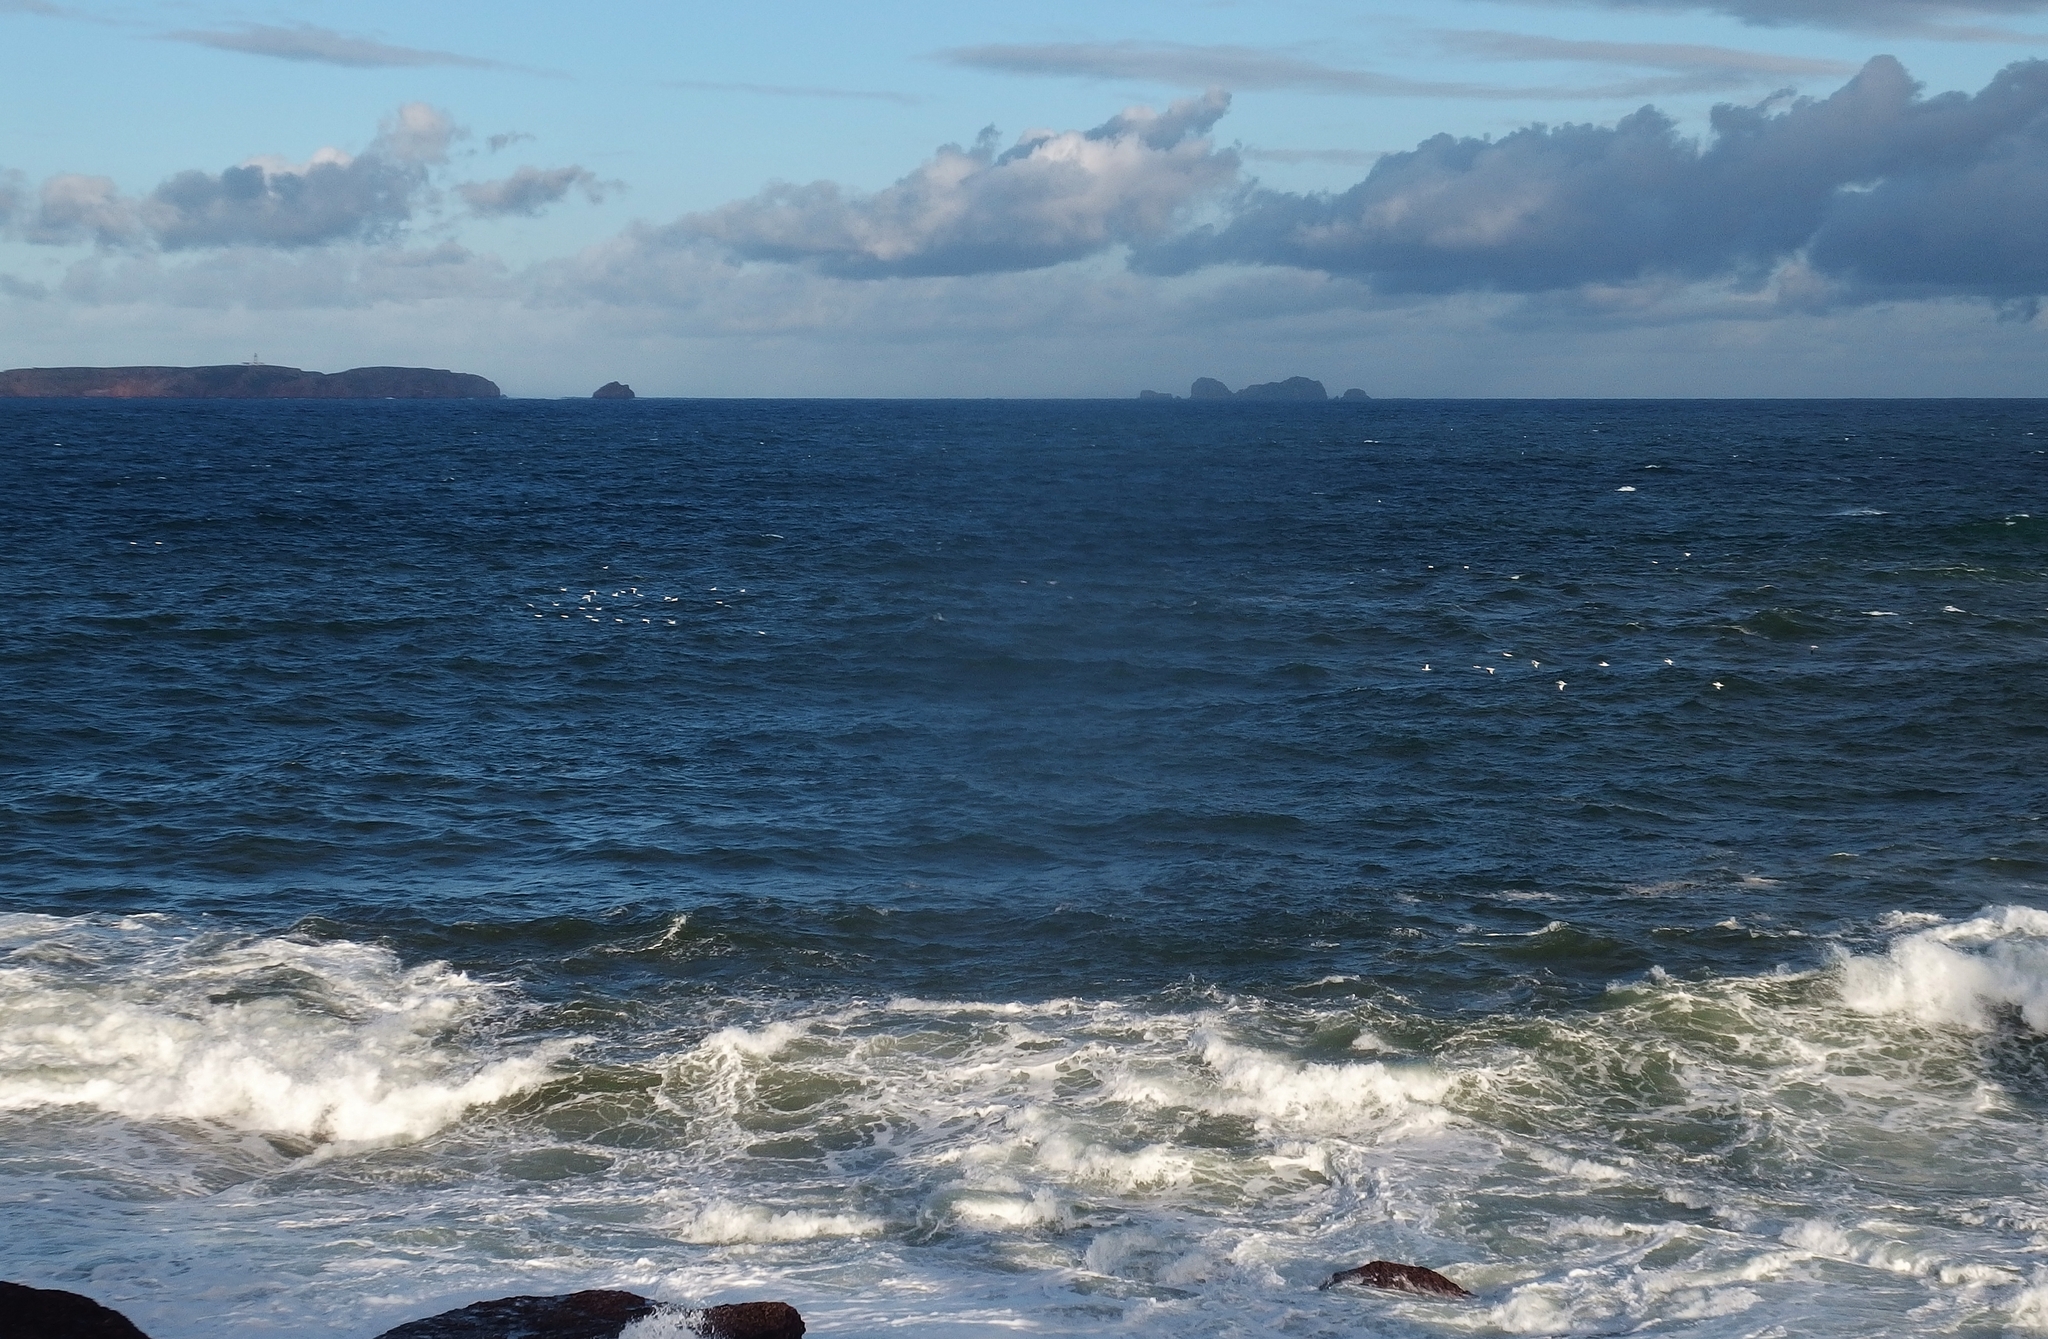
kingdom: Animalia
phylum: Chordata
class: Aves
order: Suliformes
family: Sulidae
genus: Morus
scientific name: Morus bassanus
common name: Northern gannet
